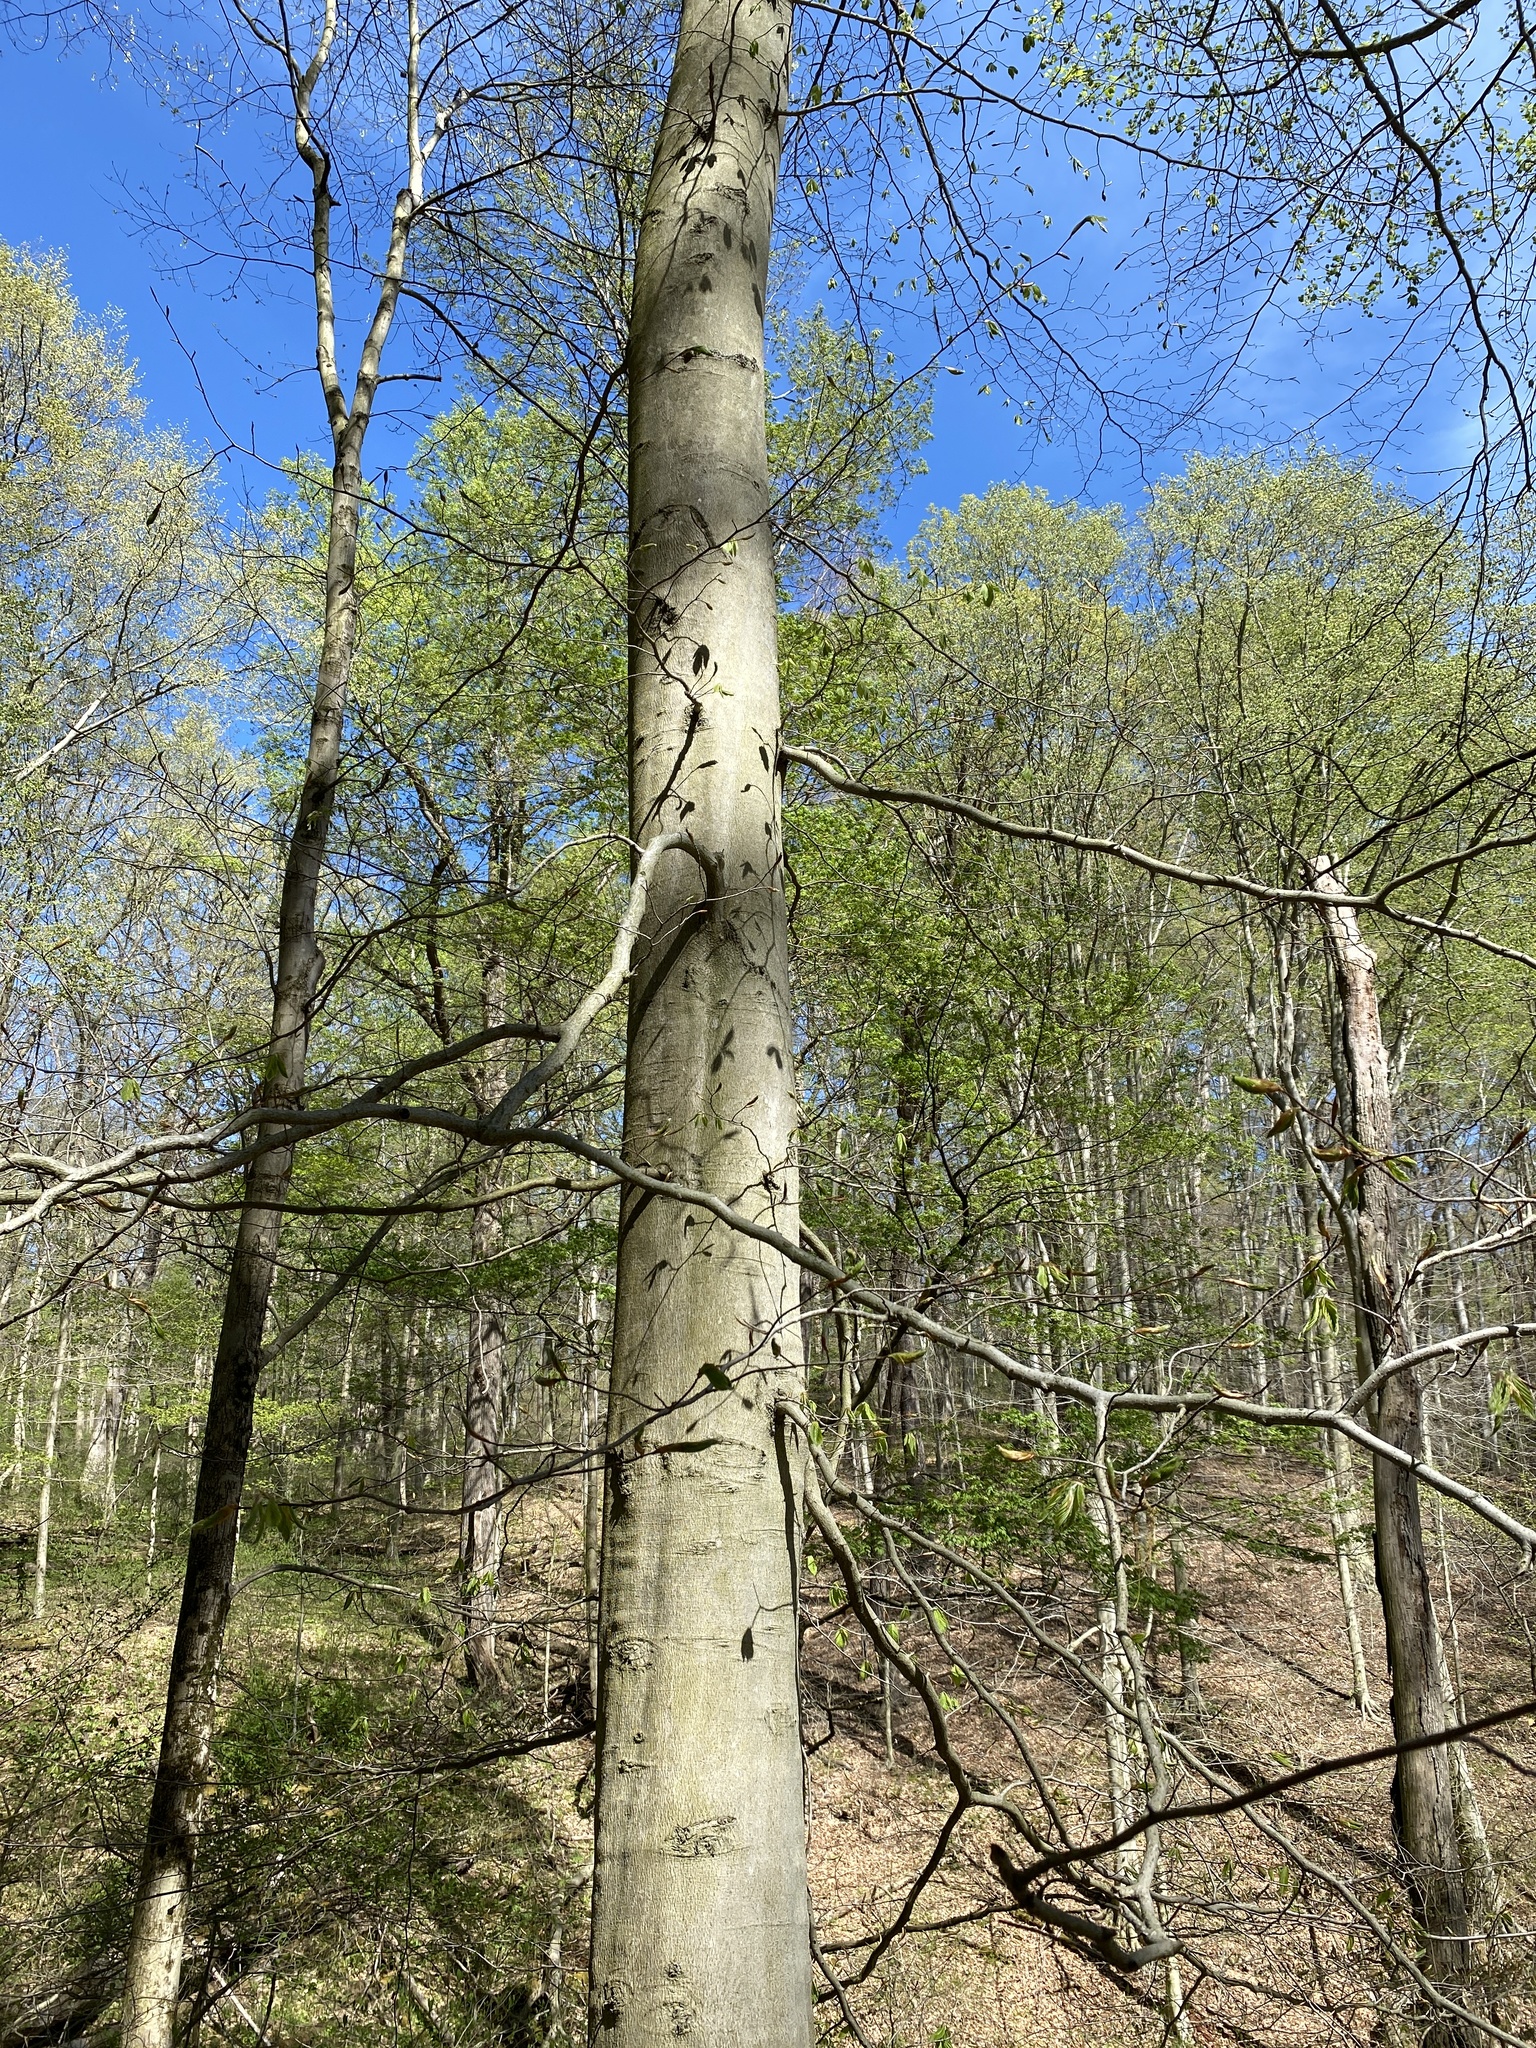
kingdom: Plantae
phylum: Tracheophyta
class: Magnoliopsida
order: Fagales
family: Fagaceae
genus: Fagus
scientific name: Fagus grandifolia
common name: American beech
